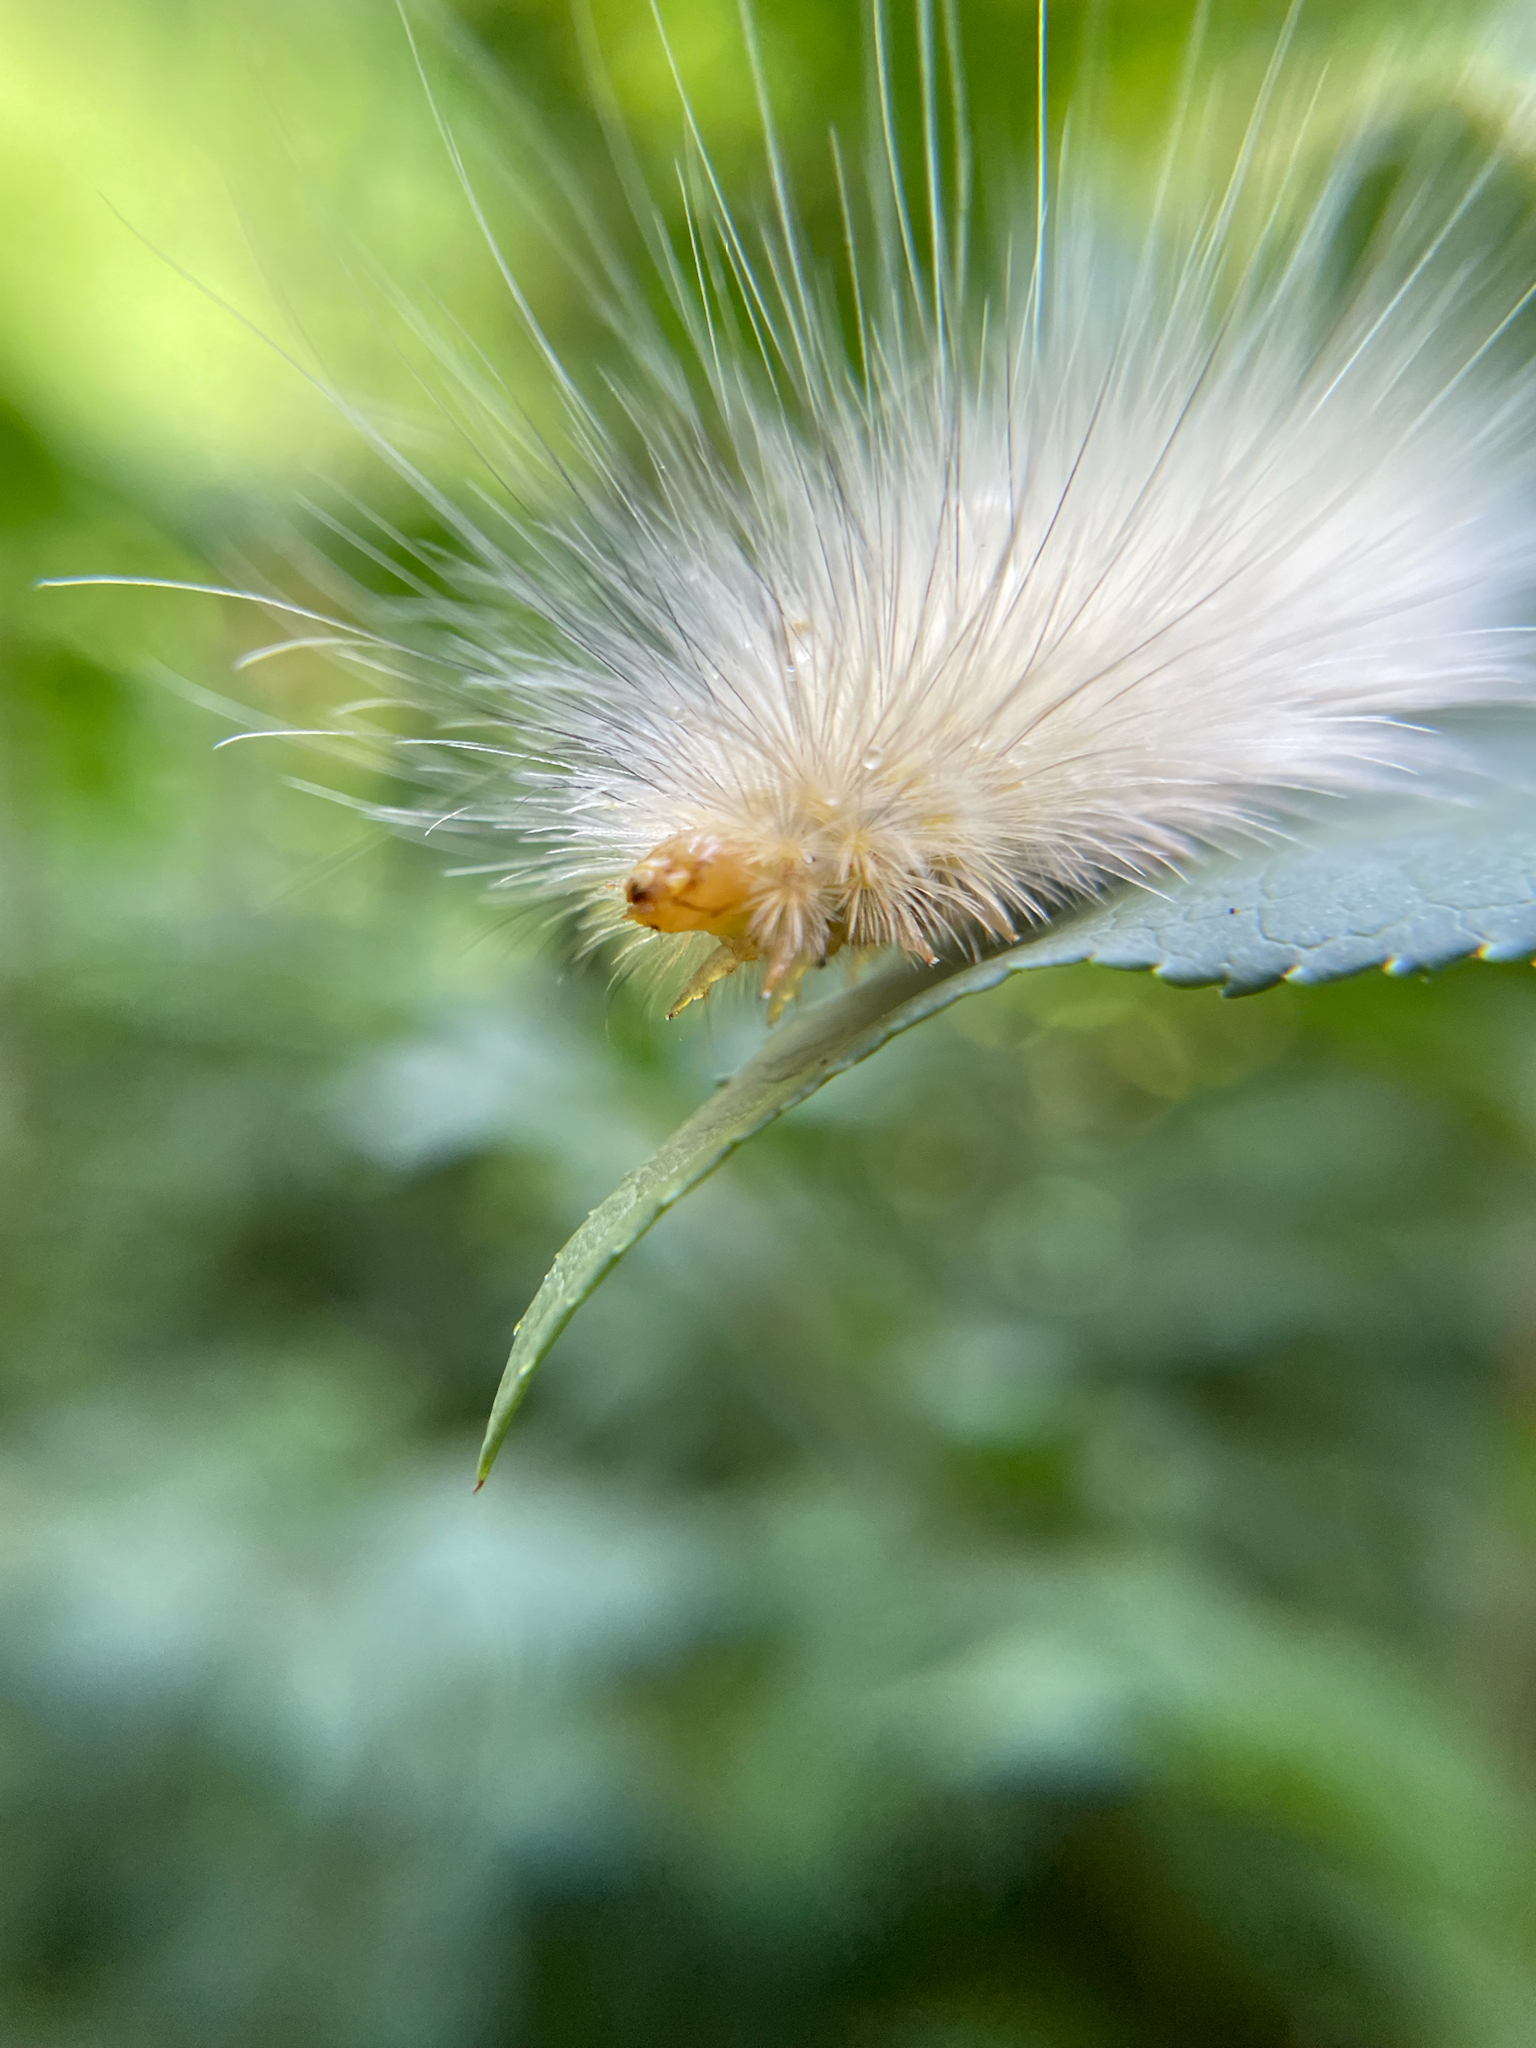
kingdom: Animalia
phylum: Arthropoda
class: Insecta
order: Lepidoptera
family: Erebidae
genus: Spilosoma
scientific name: Spilosoma virginica
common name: Virginia tiger moth
